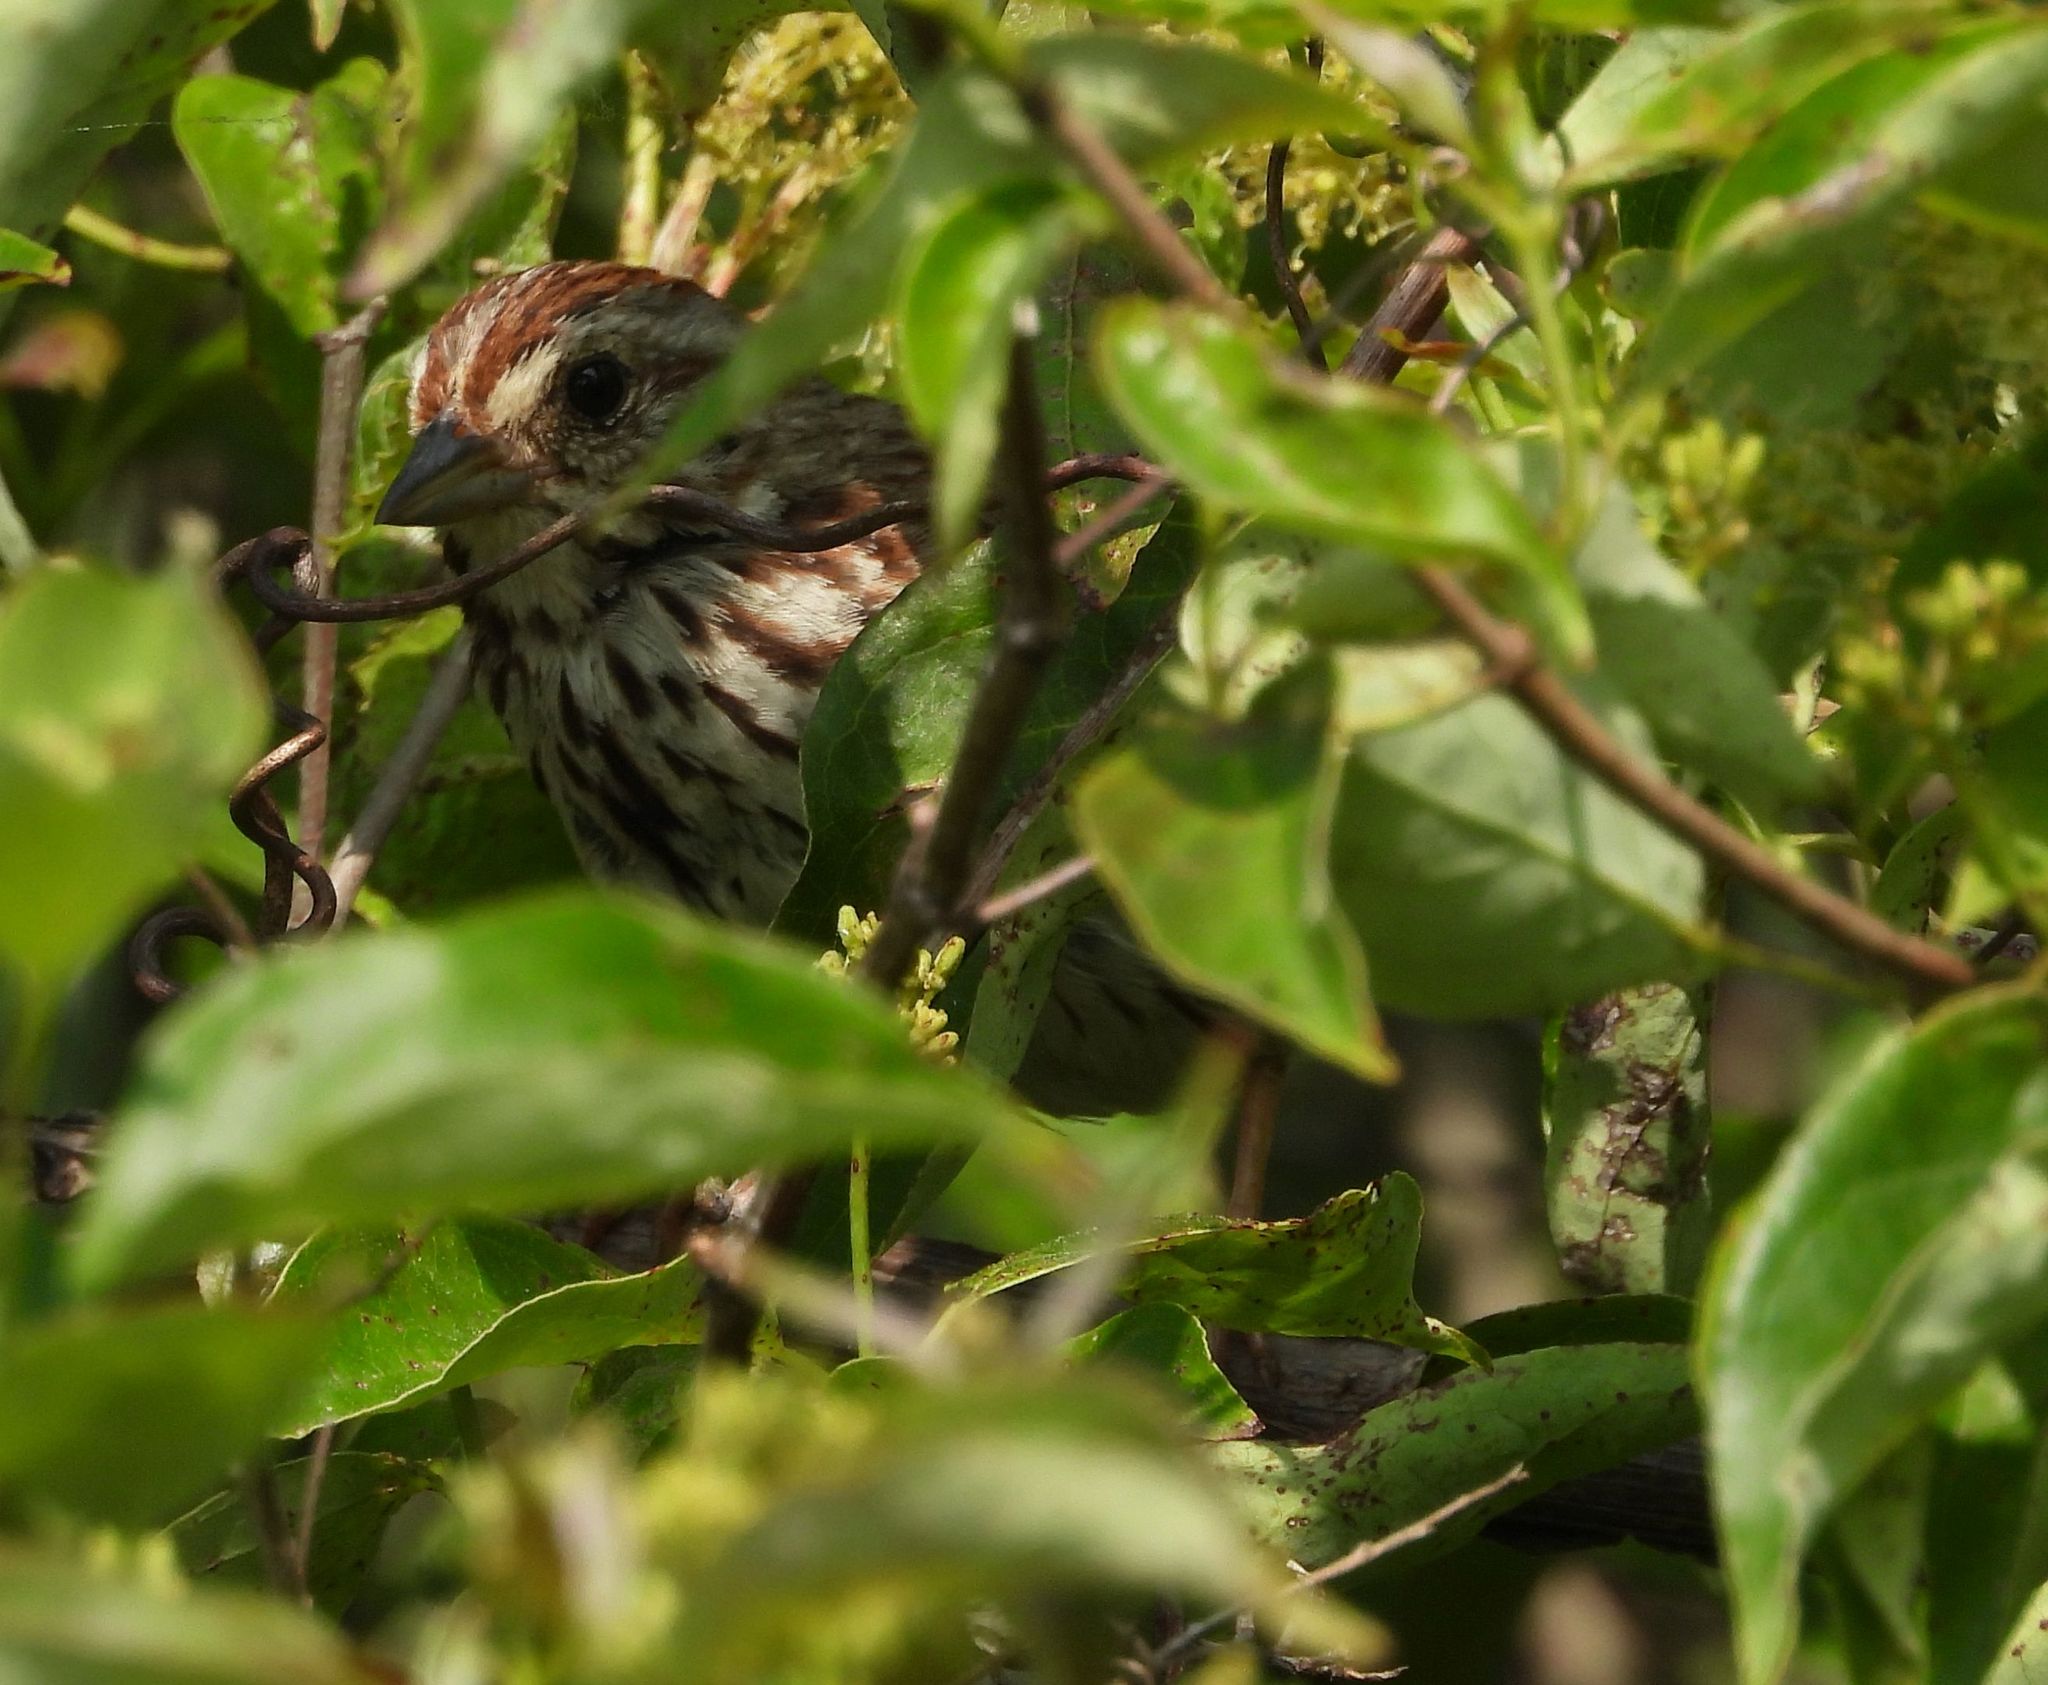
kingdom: Animalia
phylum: Chordata
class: Aves
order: Passeriformes
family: Passerellidae
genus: Melospiza
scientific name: Melospiza melodia
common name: Song sparrow
